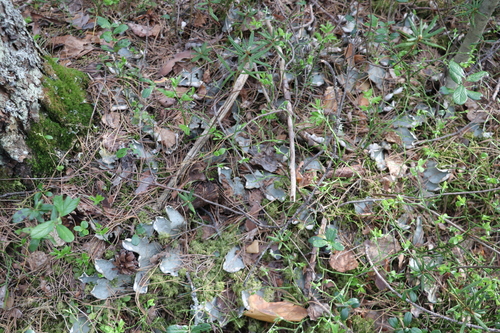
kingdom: Fungi
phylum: Ascomycota
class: Lecanoromycetes
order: Peltigerales
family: Peltigeraceae
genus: Peltigera
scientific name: Peltigera aphthosa
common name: Common freckle pelt lichen
